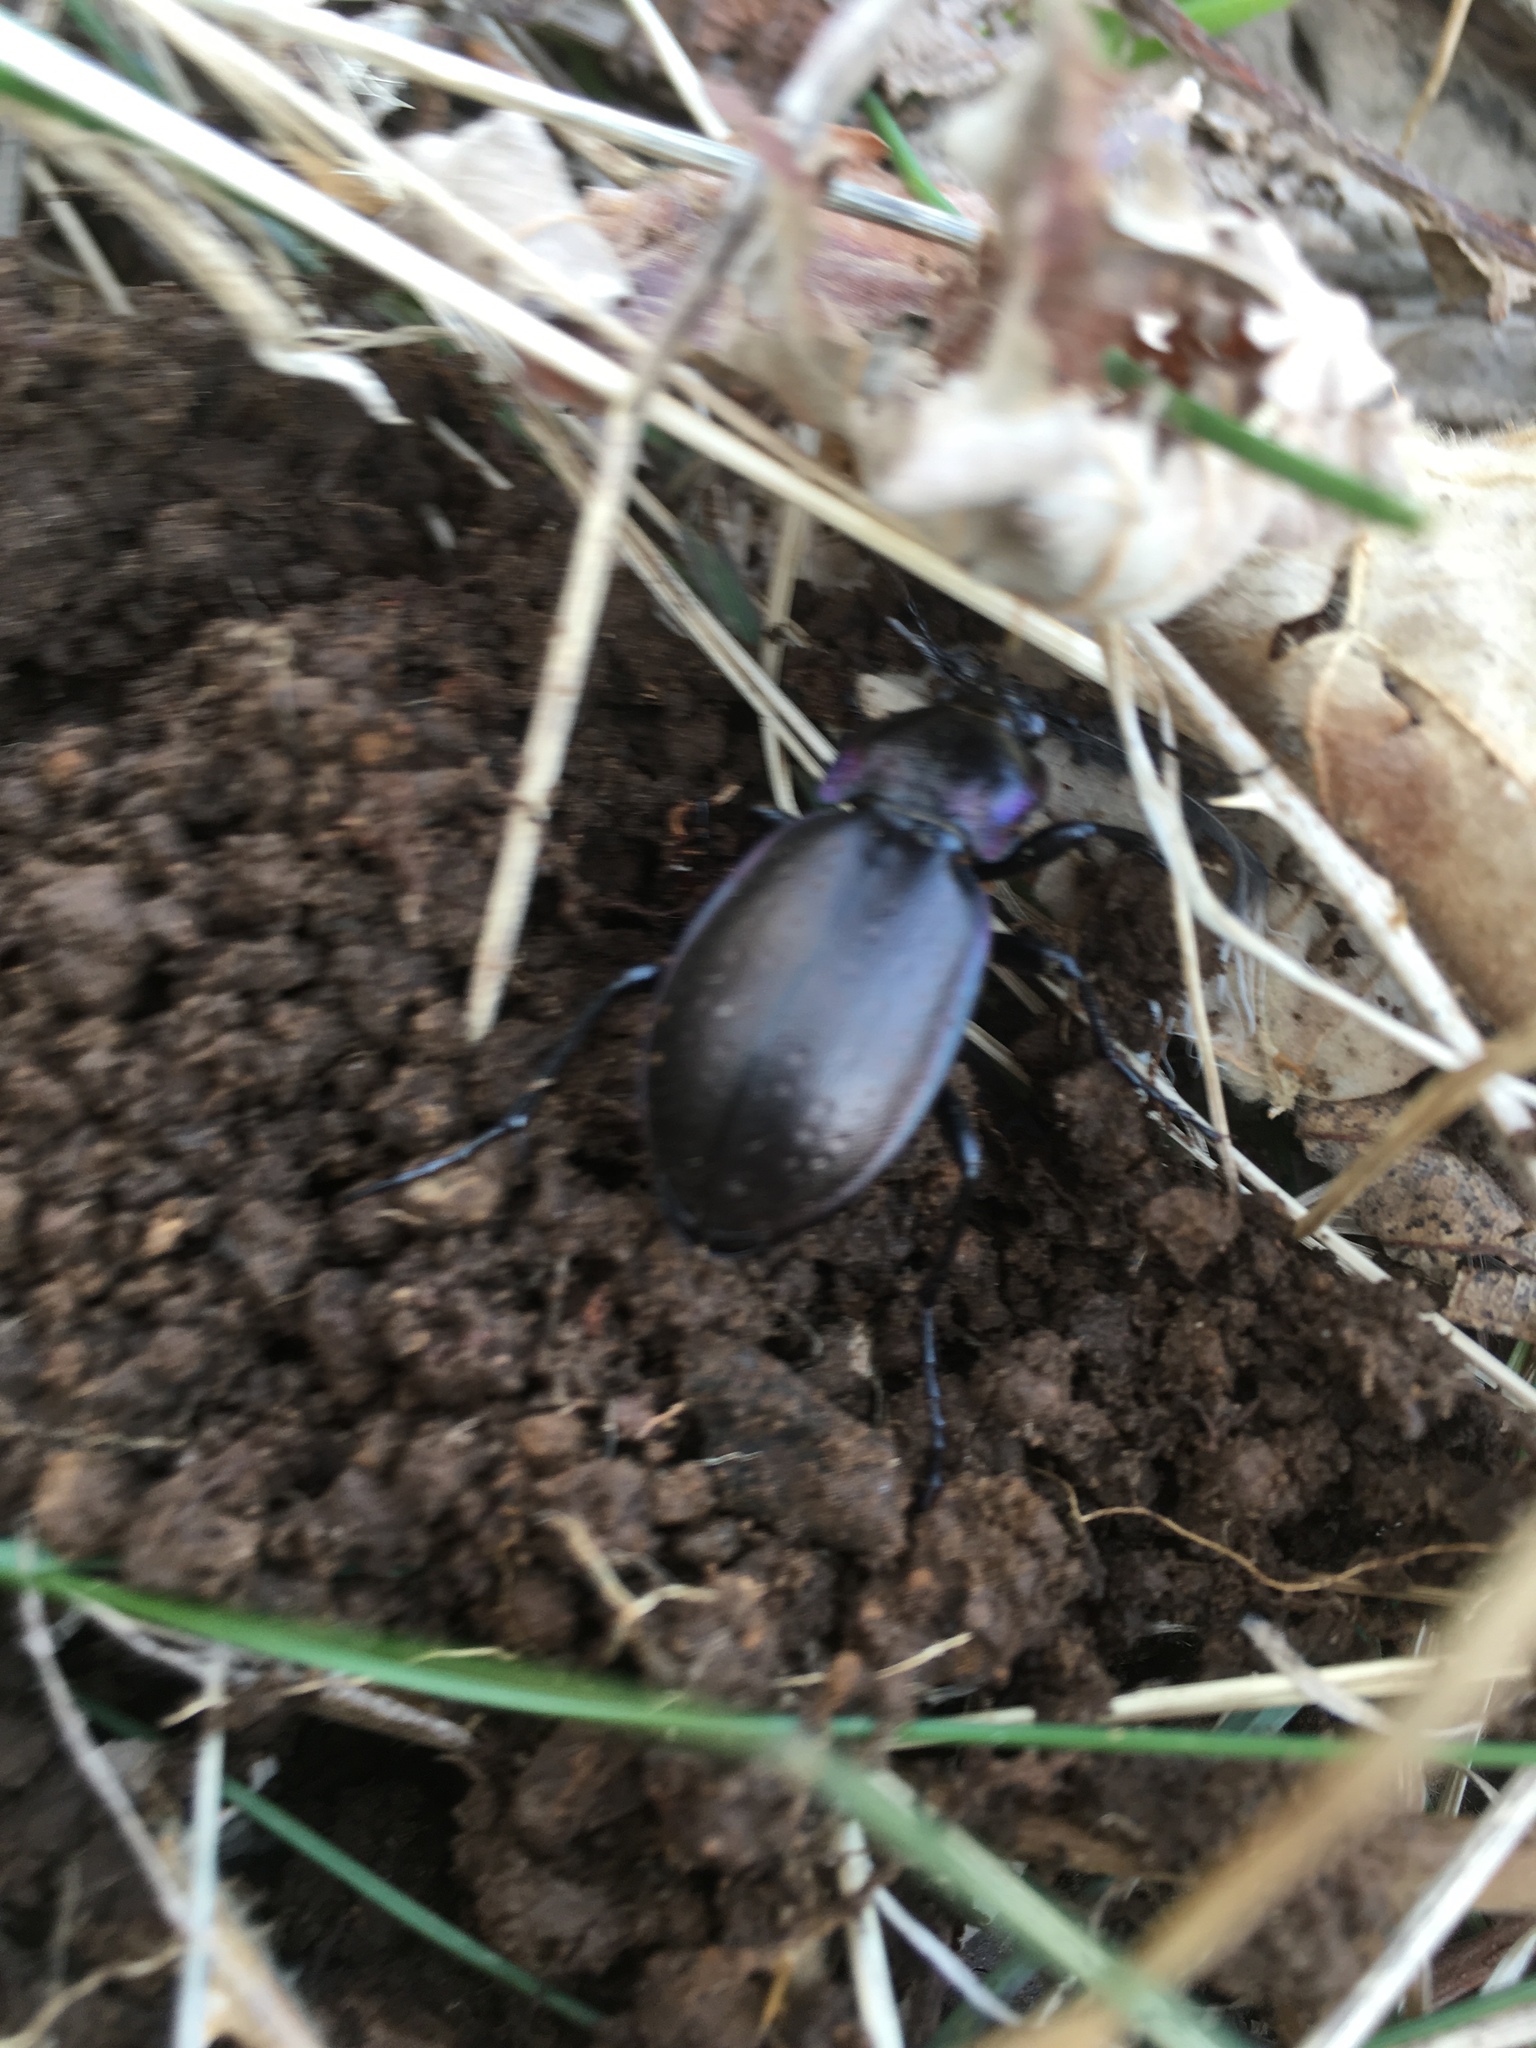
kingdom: Animalia
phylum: Arthropoda
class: Insecta
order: Coleoptera
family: Carabidae
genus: Carabus
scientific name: Carabus nemoralis
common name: European ground beetle
